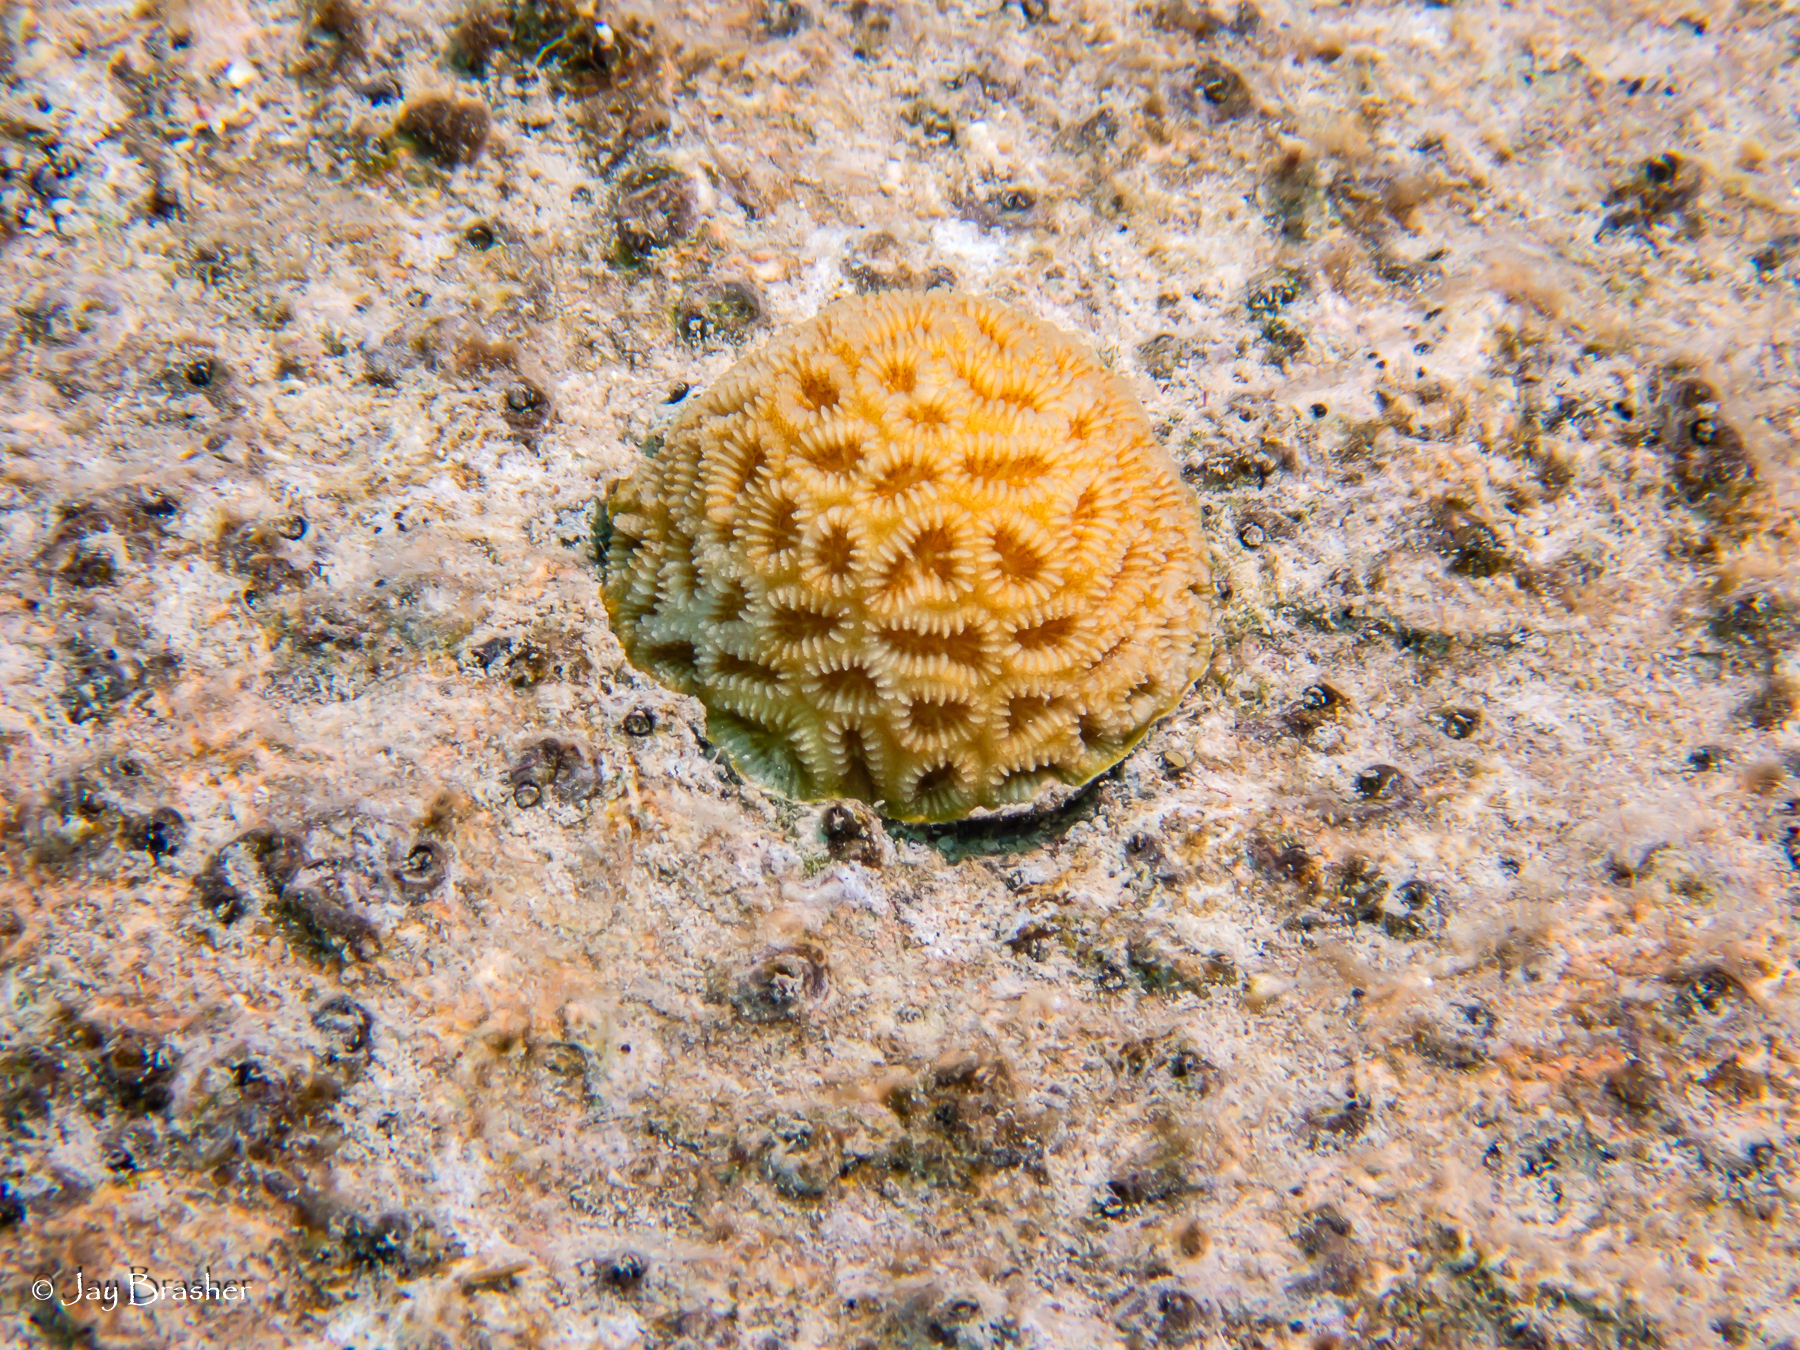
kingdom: Animalia
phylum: Cnidaria
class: Anthozoa
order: Scleractinia
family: Faviidae
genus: Favia
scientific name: Favia fragum
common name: Golfball coral
